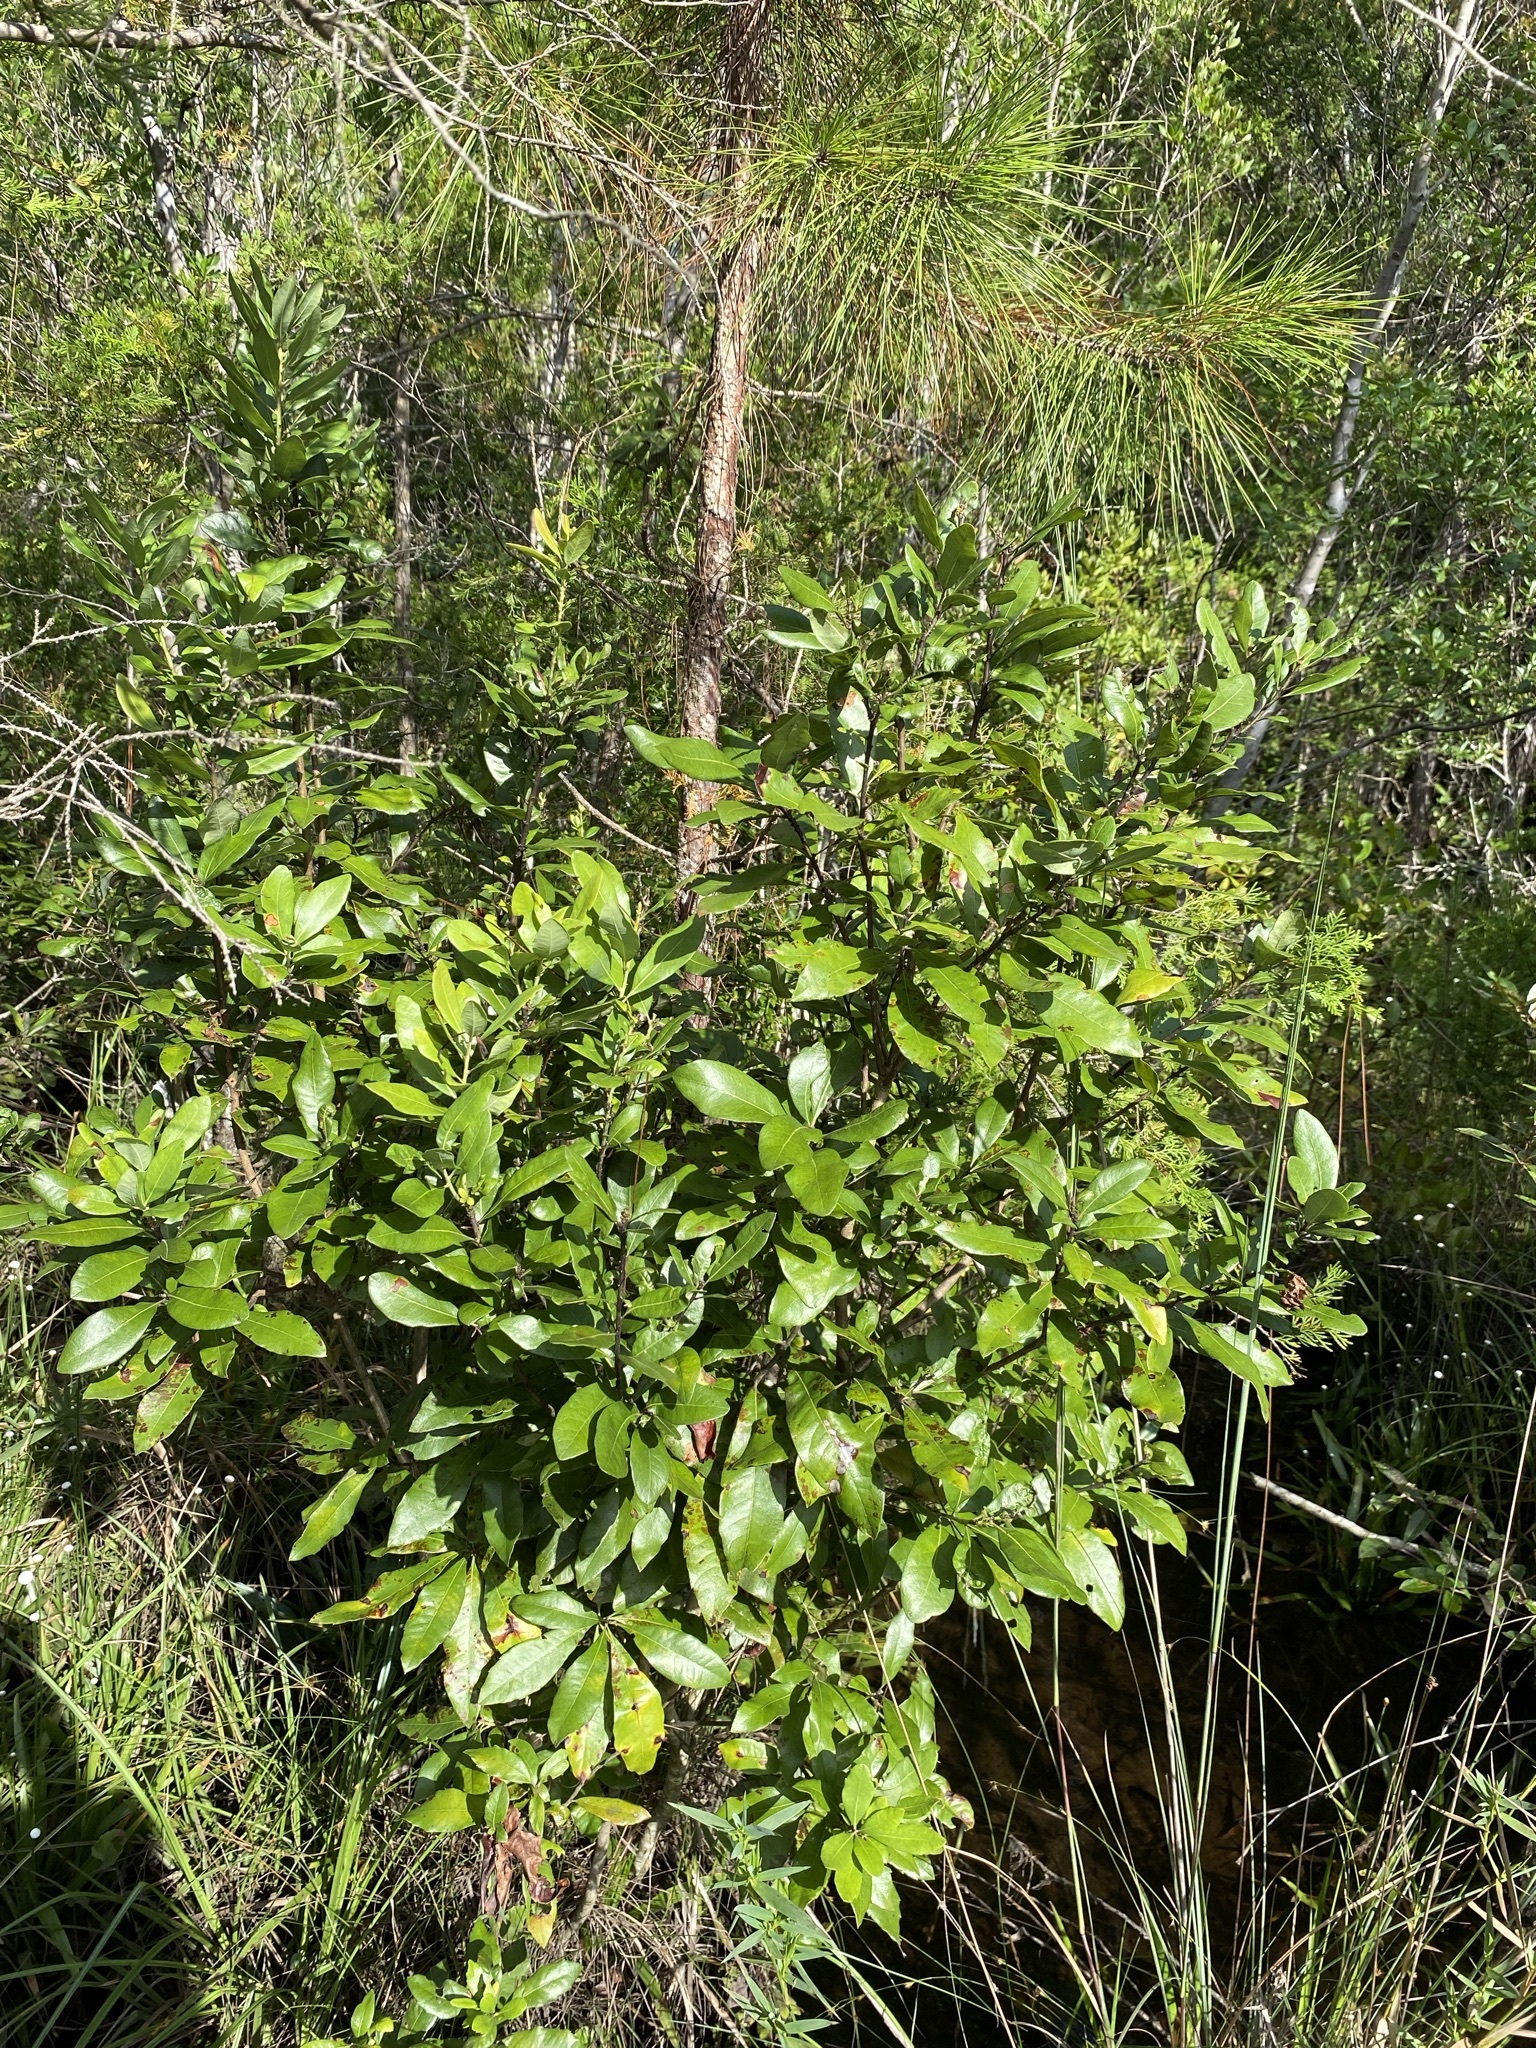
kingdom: Plantae
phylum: Tracheophyta
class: Magnoliopsida
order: Fagales
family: Myricaceae
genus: Morella
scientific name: Morella caroliniensis
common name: Evergreen bayberry
